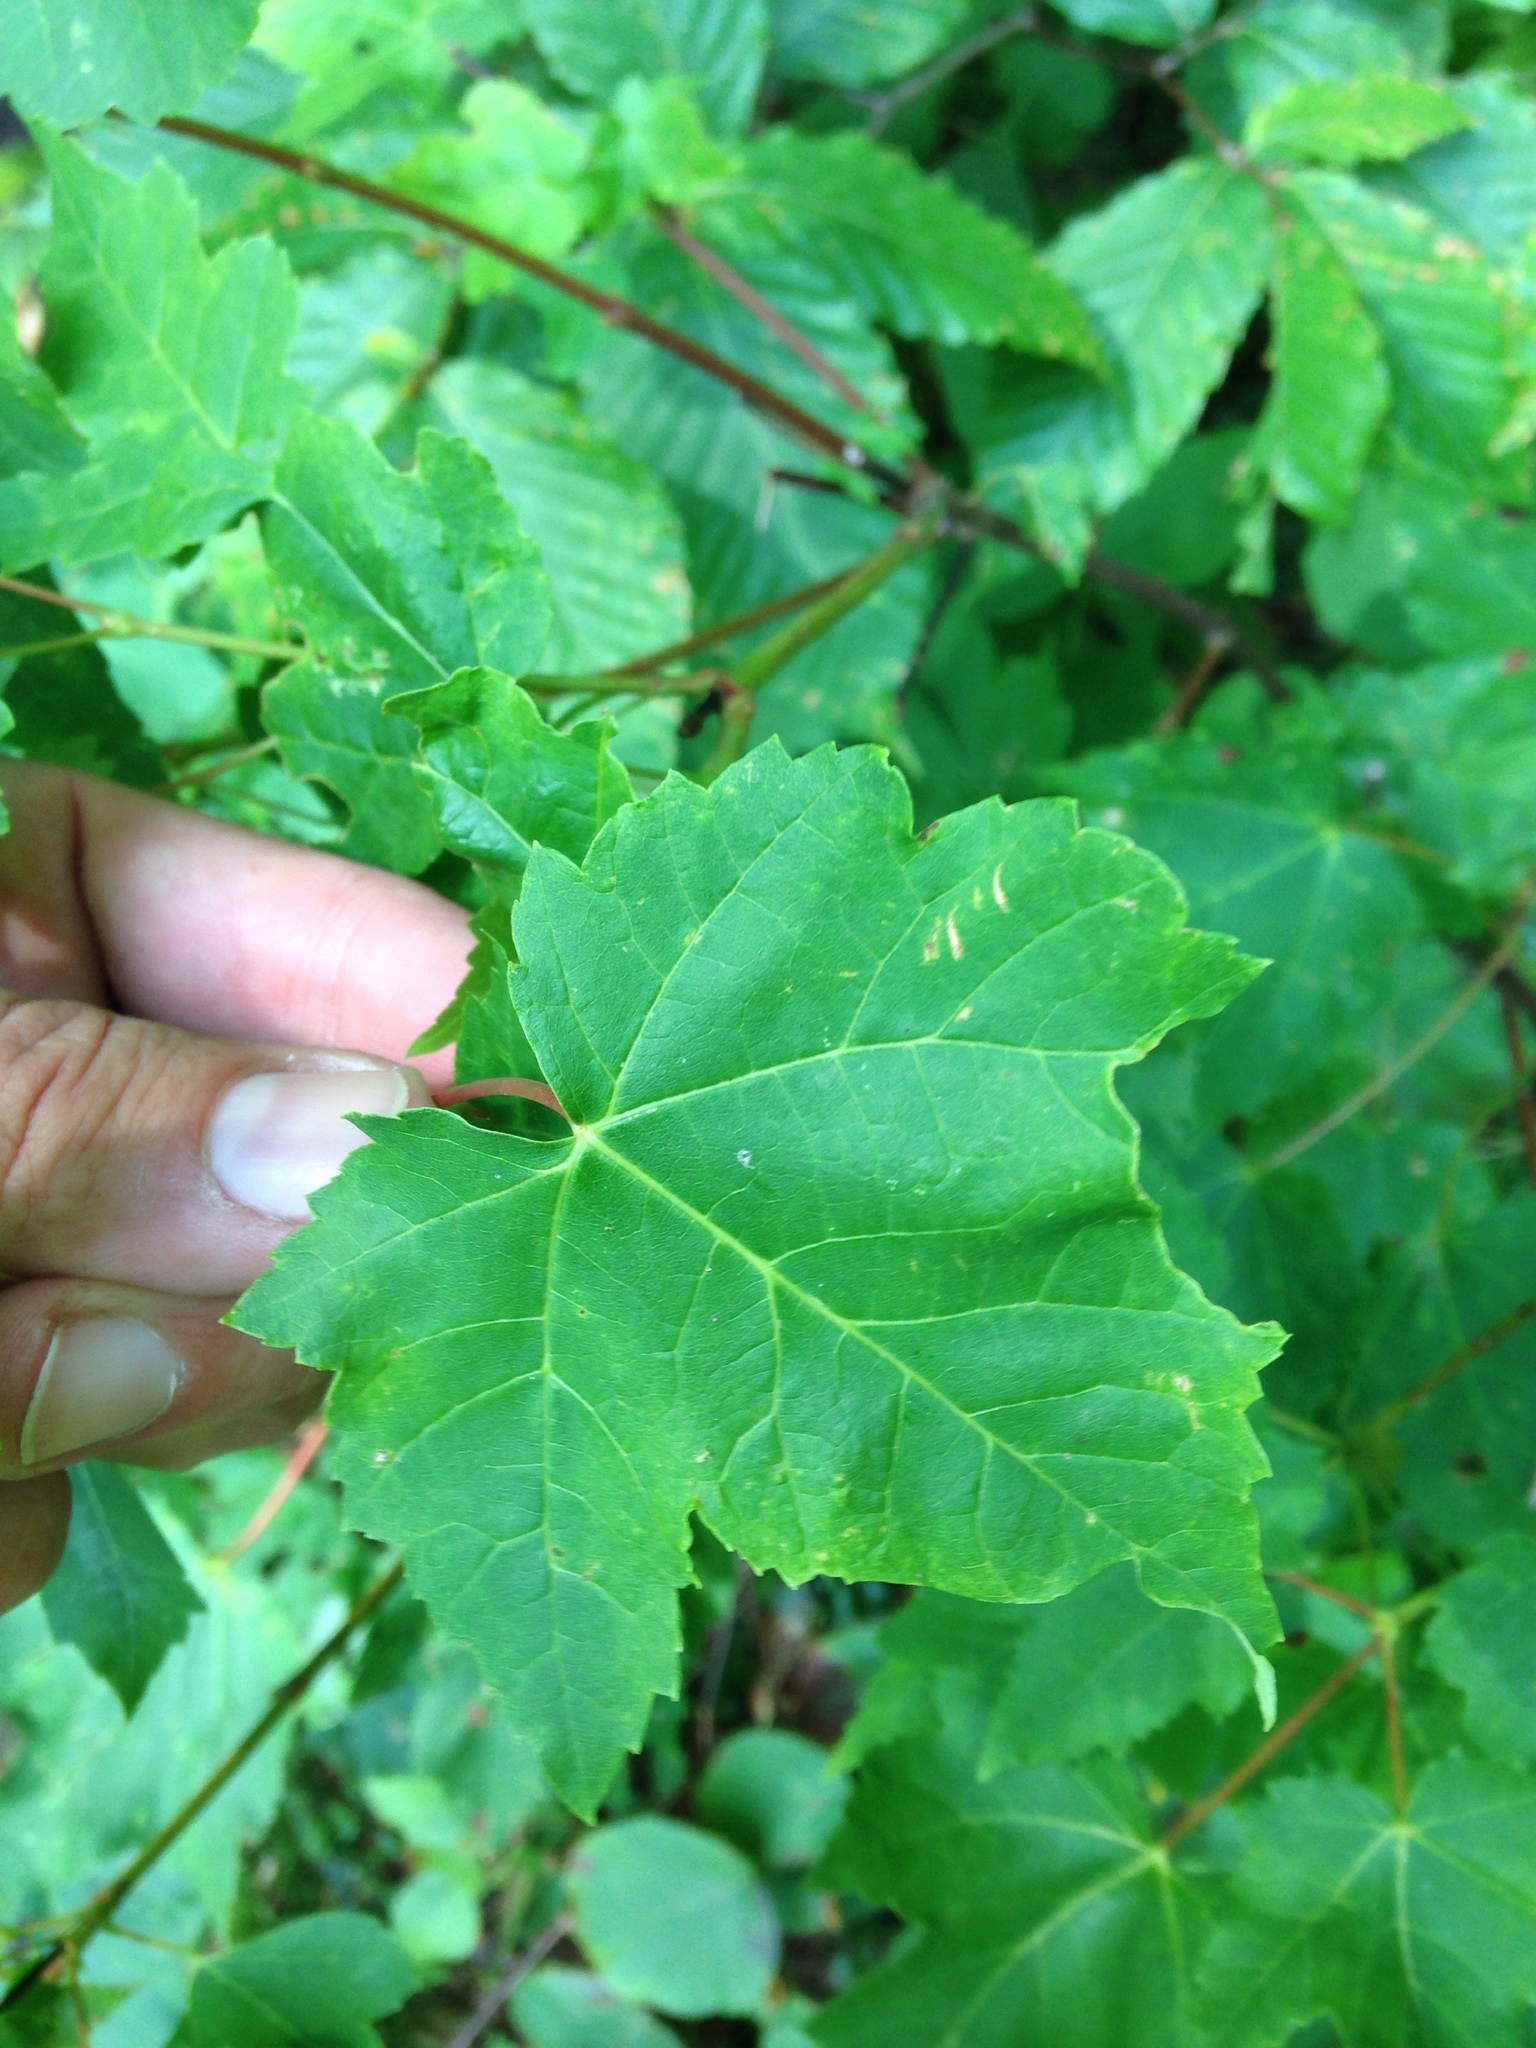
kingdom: Plantae
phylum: Tracheophyta
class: Magnoliopsida
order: Sapindales
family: Sapindaceae
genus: Acer
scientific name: Acer rubrum
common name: Red maple
